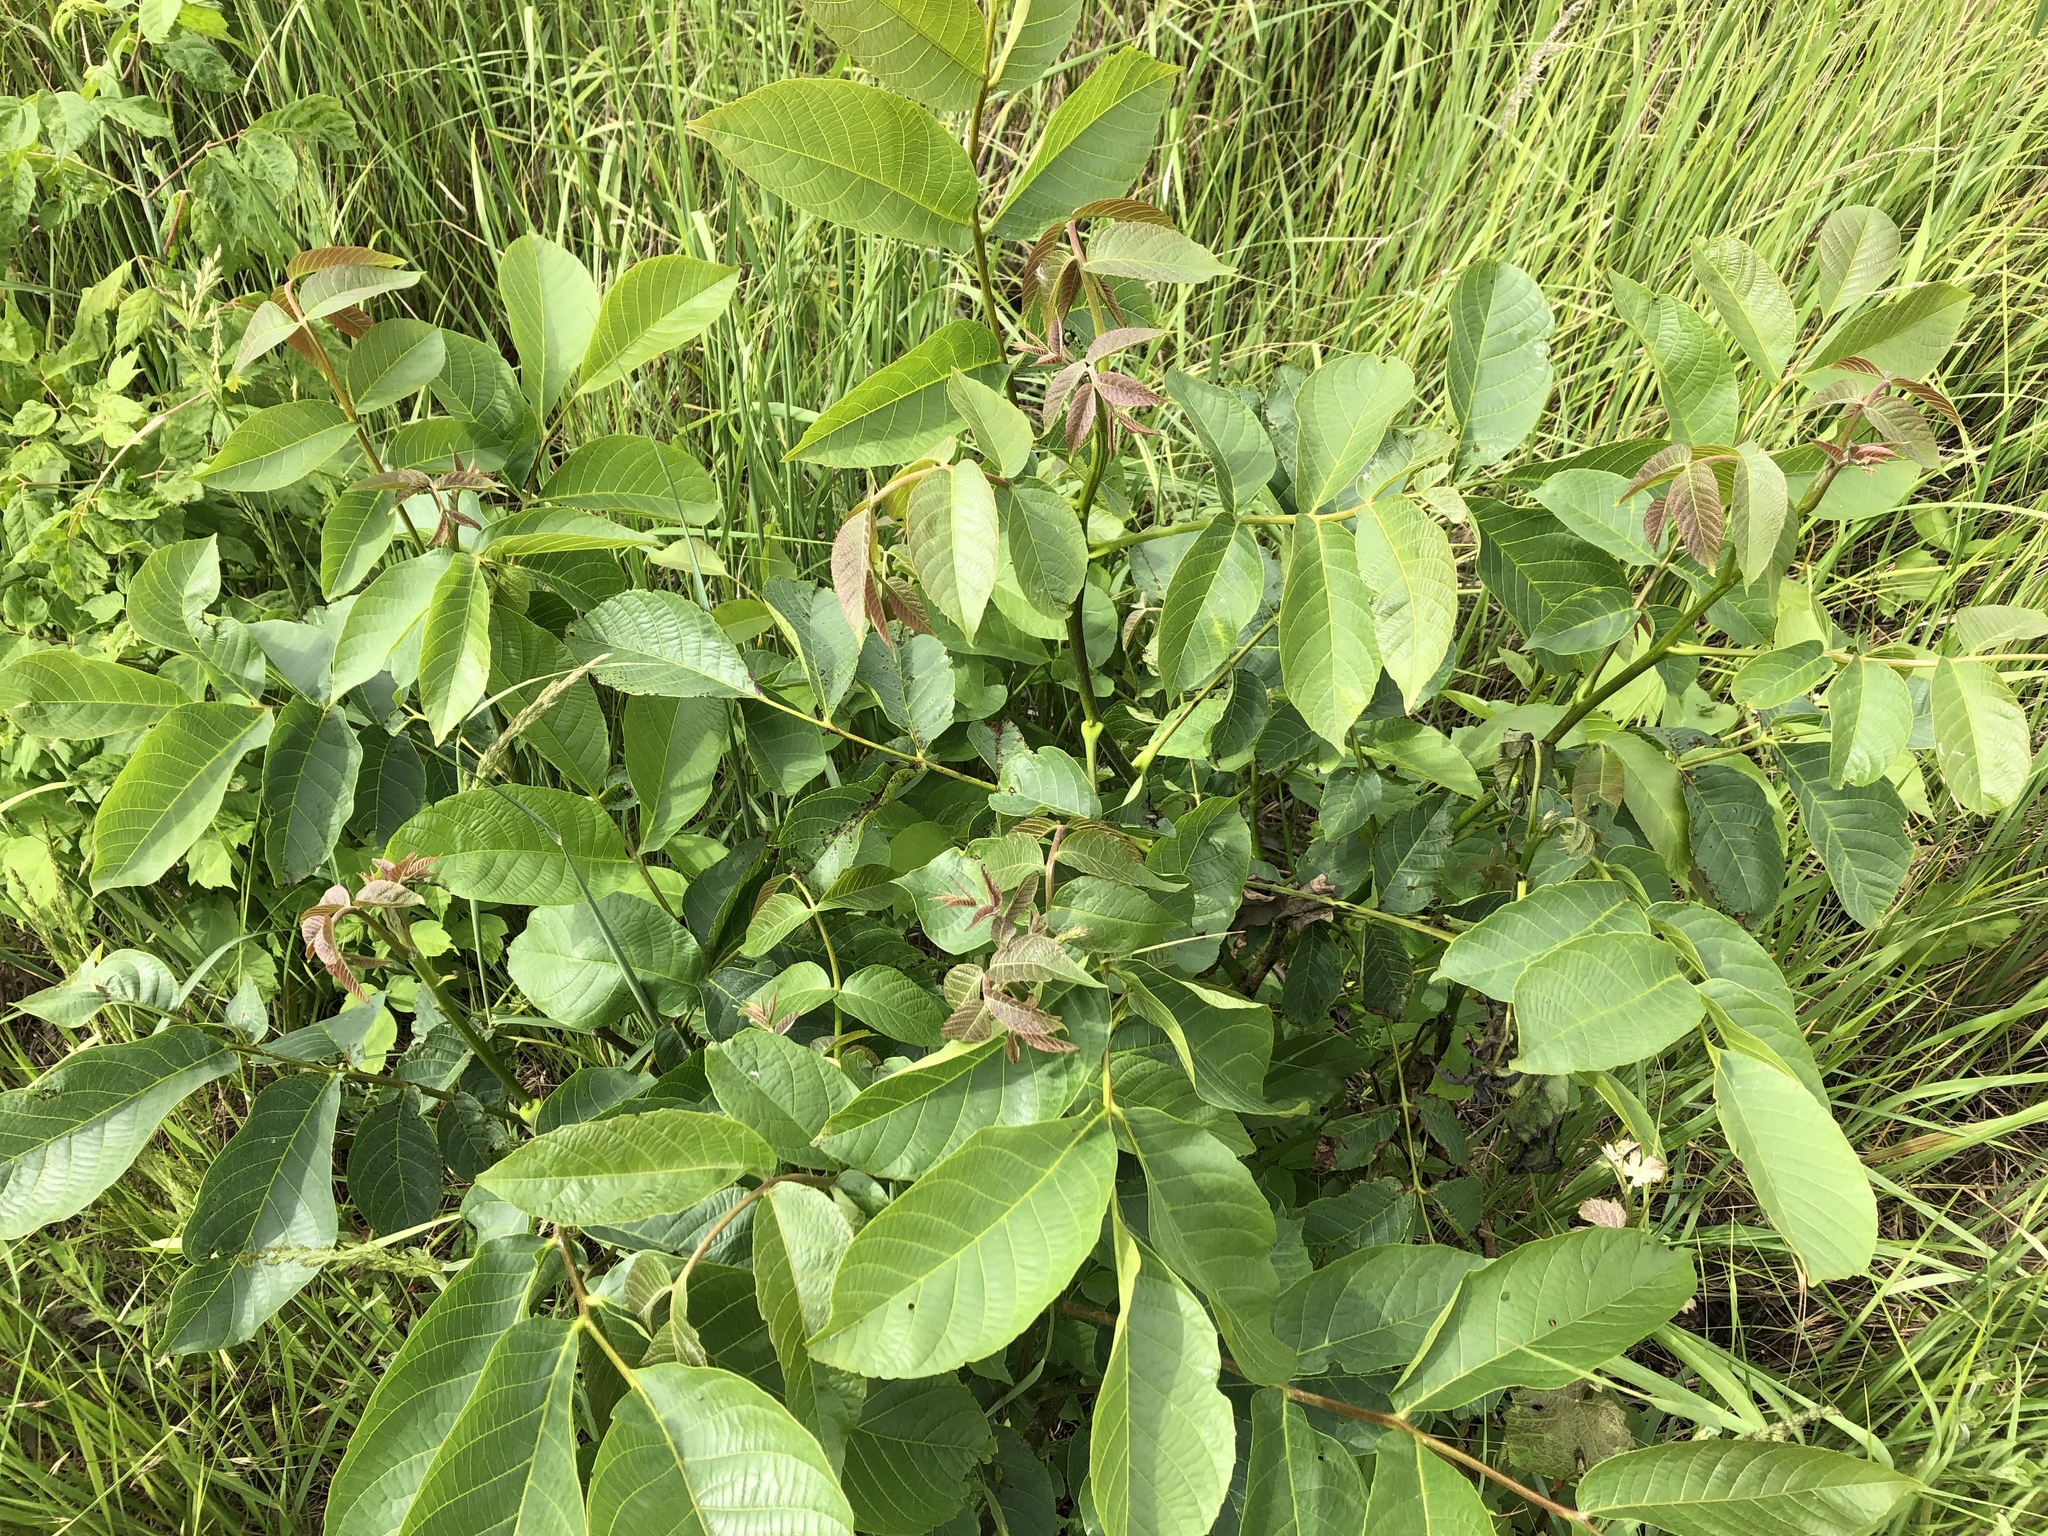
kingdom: Plantae
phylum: Tracheophyta
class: Magnoliopsida
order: Fagales
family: Juglandaceae
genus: Juglans
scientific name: Juglans regia
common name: Walnut
